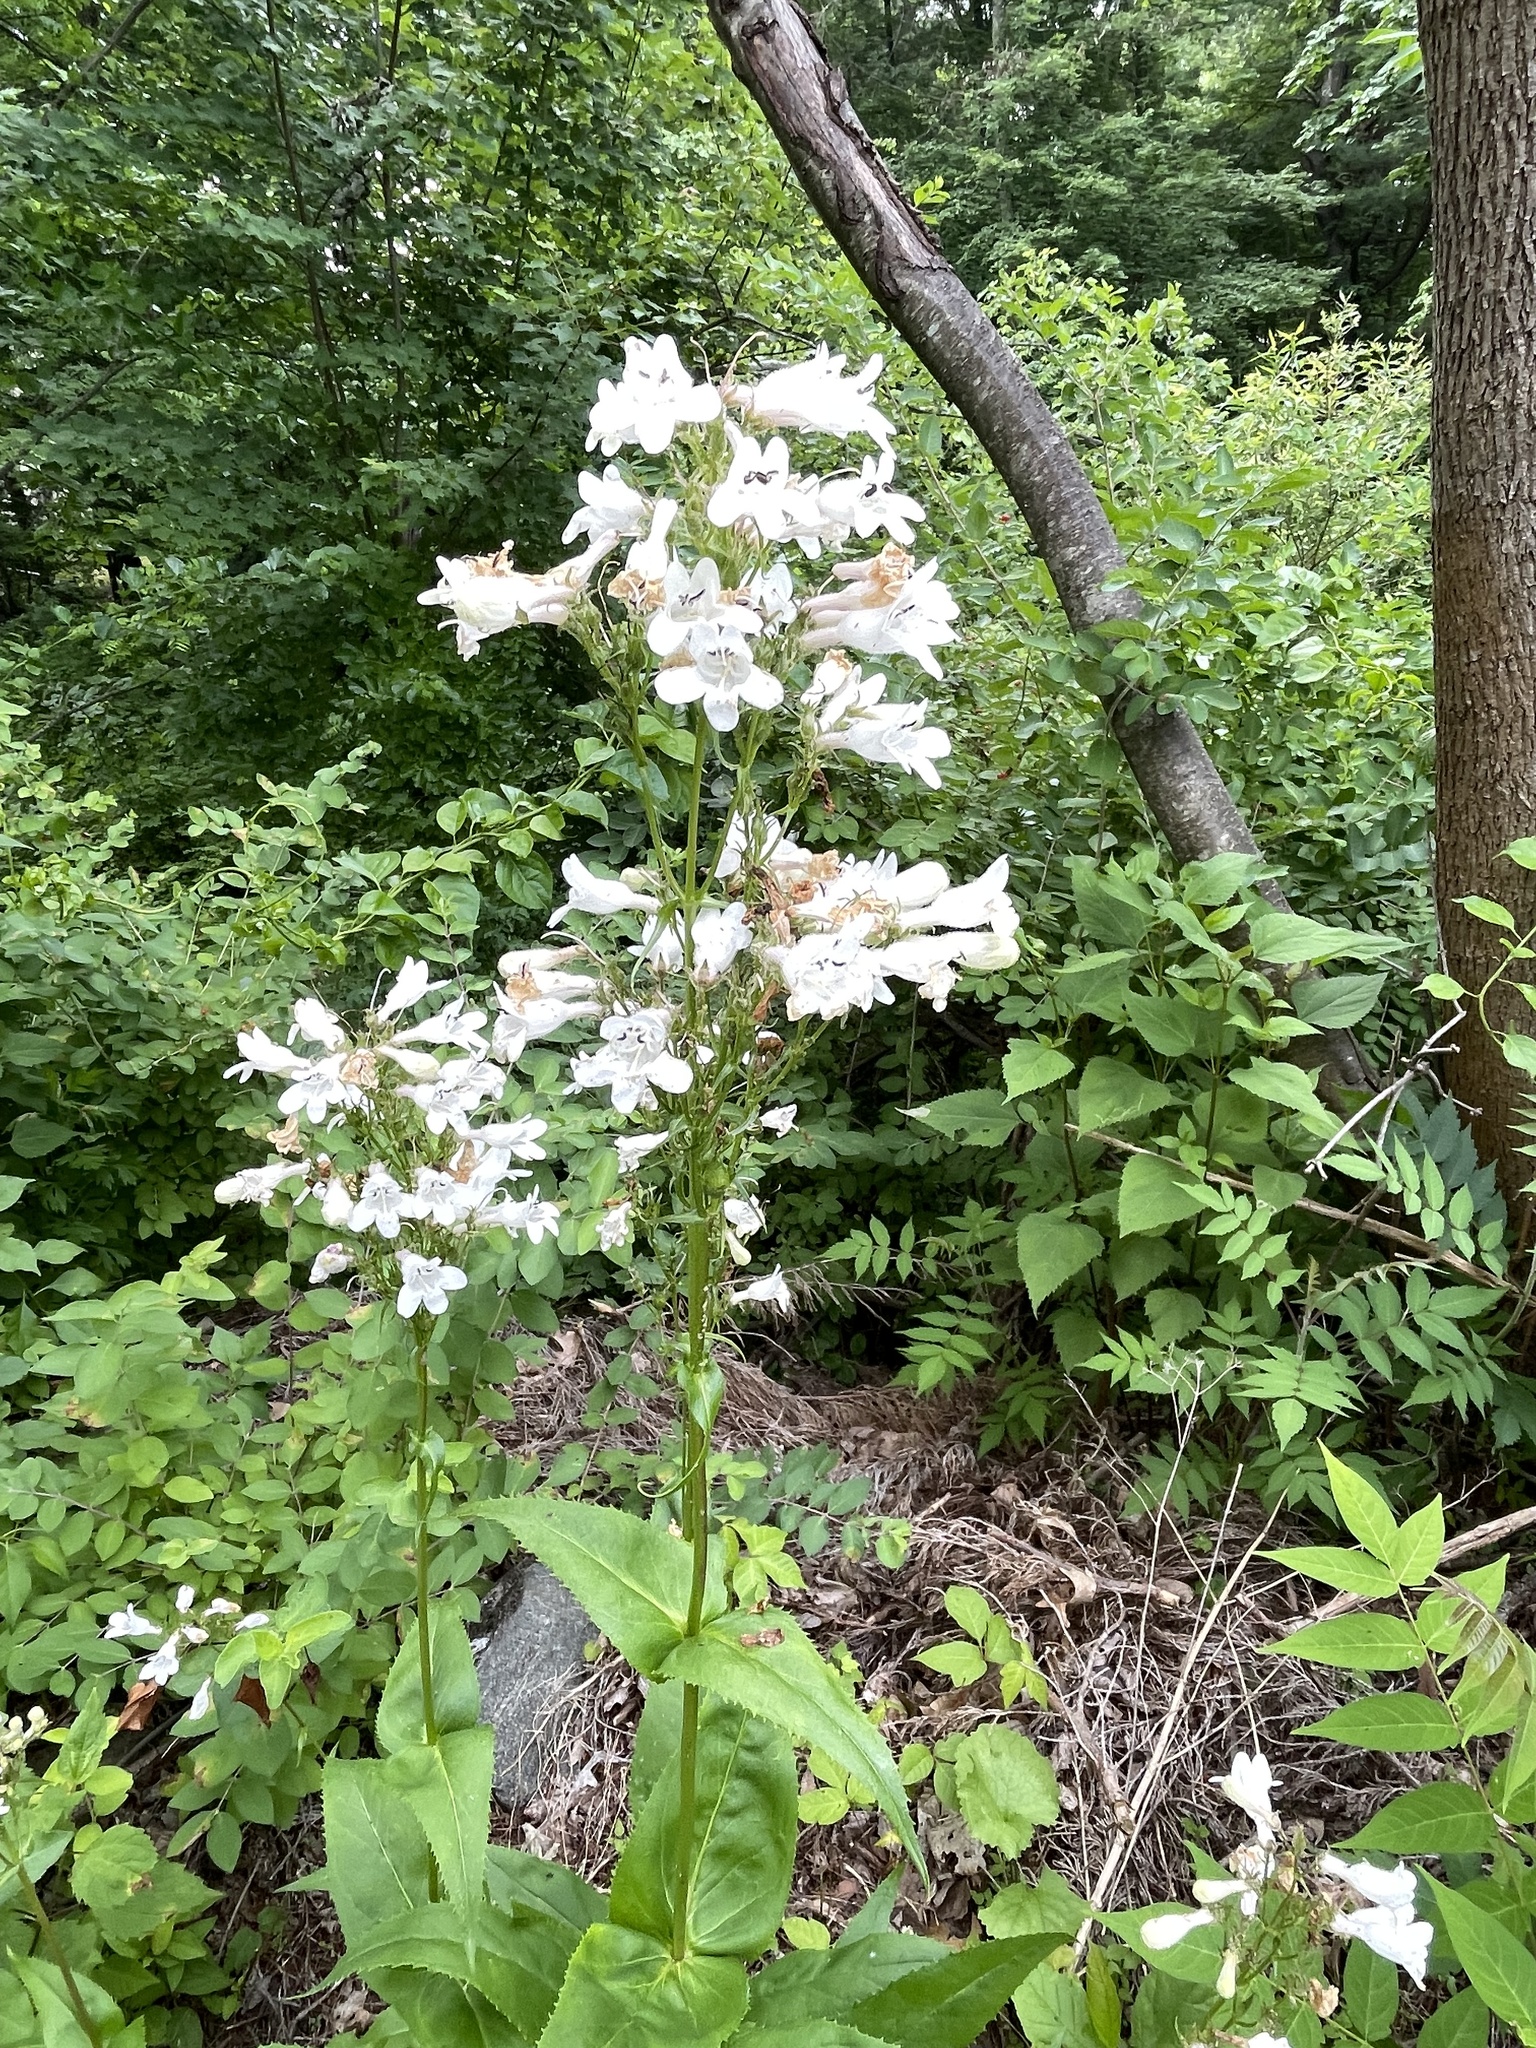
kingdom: Plantae
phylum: Tracheophyta
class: Magnoliopsida
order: Lamiales
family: Plantaginaceae
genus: Penstemon
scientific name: Penstemon digitalis
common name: Foxglove beardtongue
